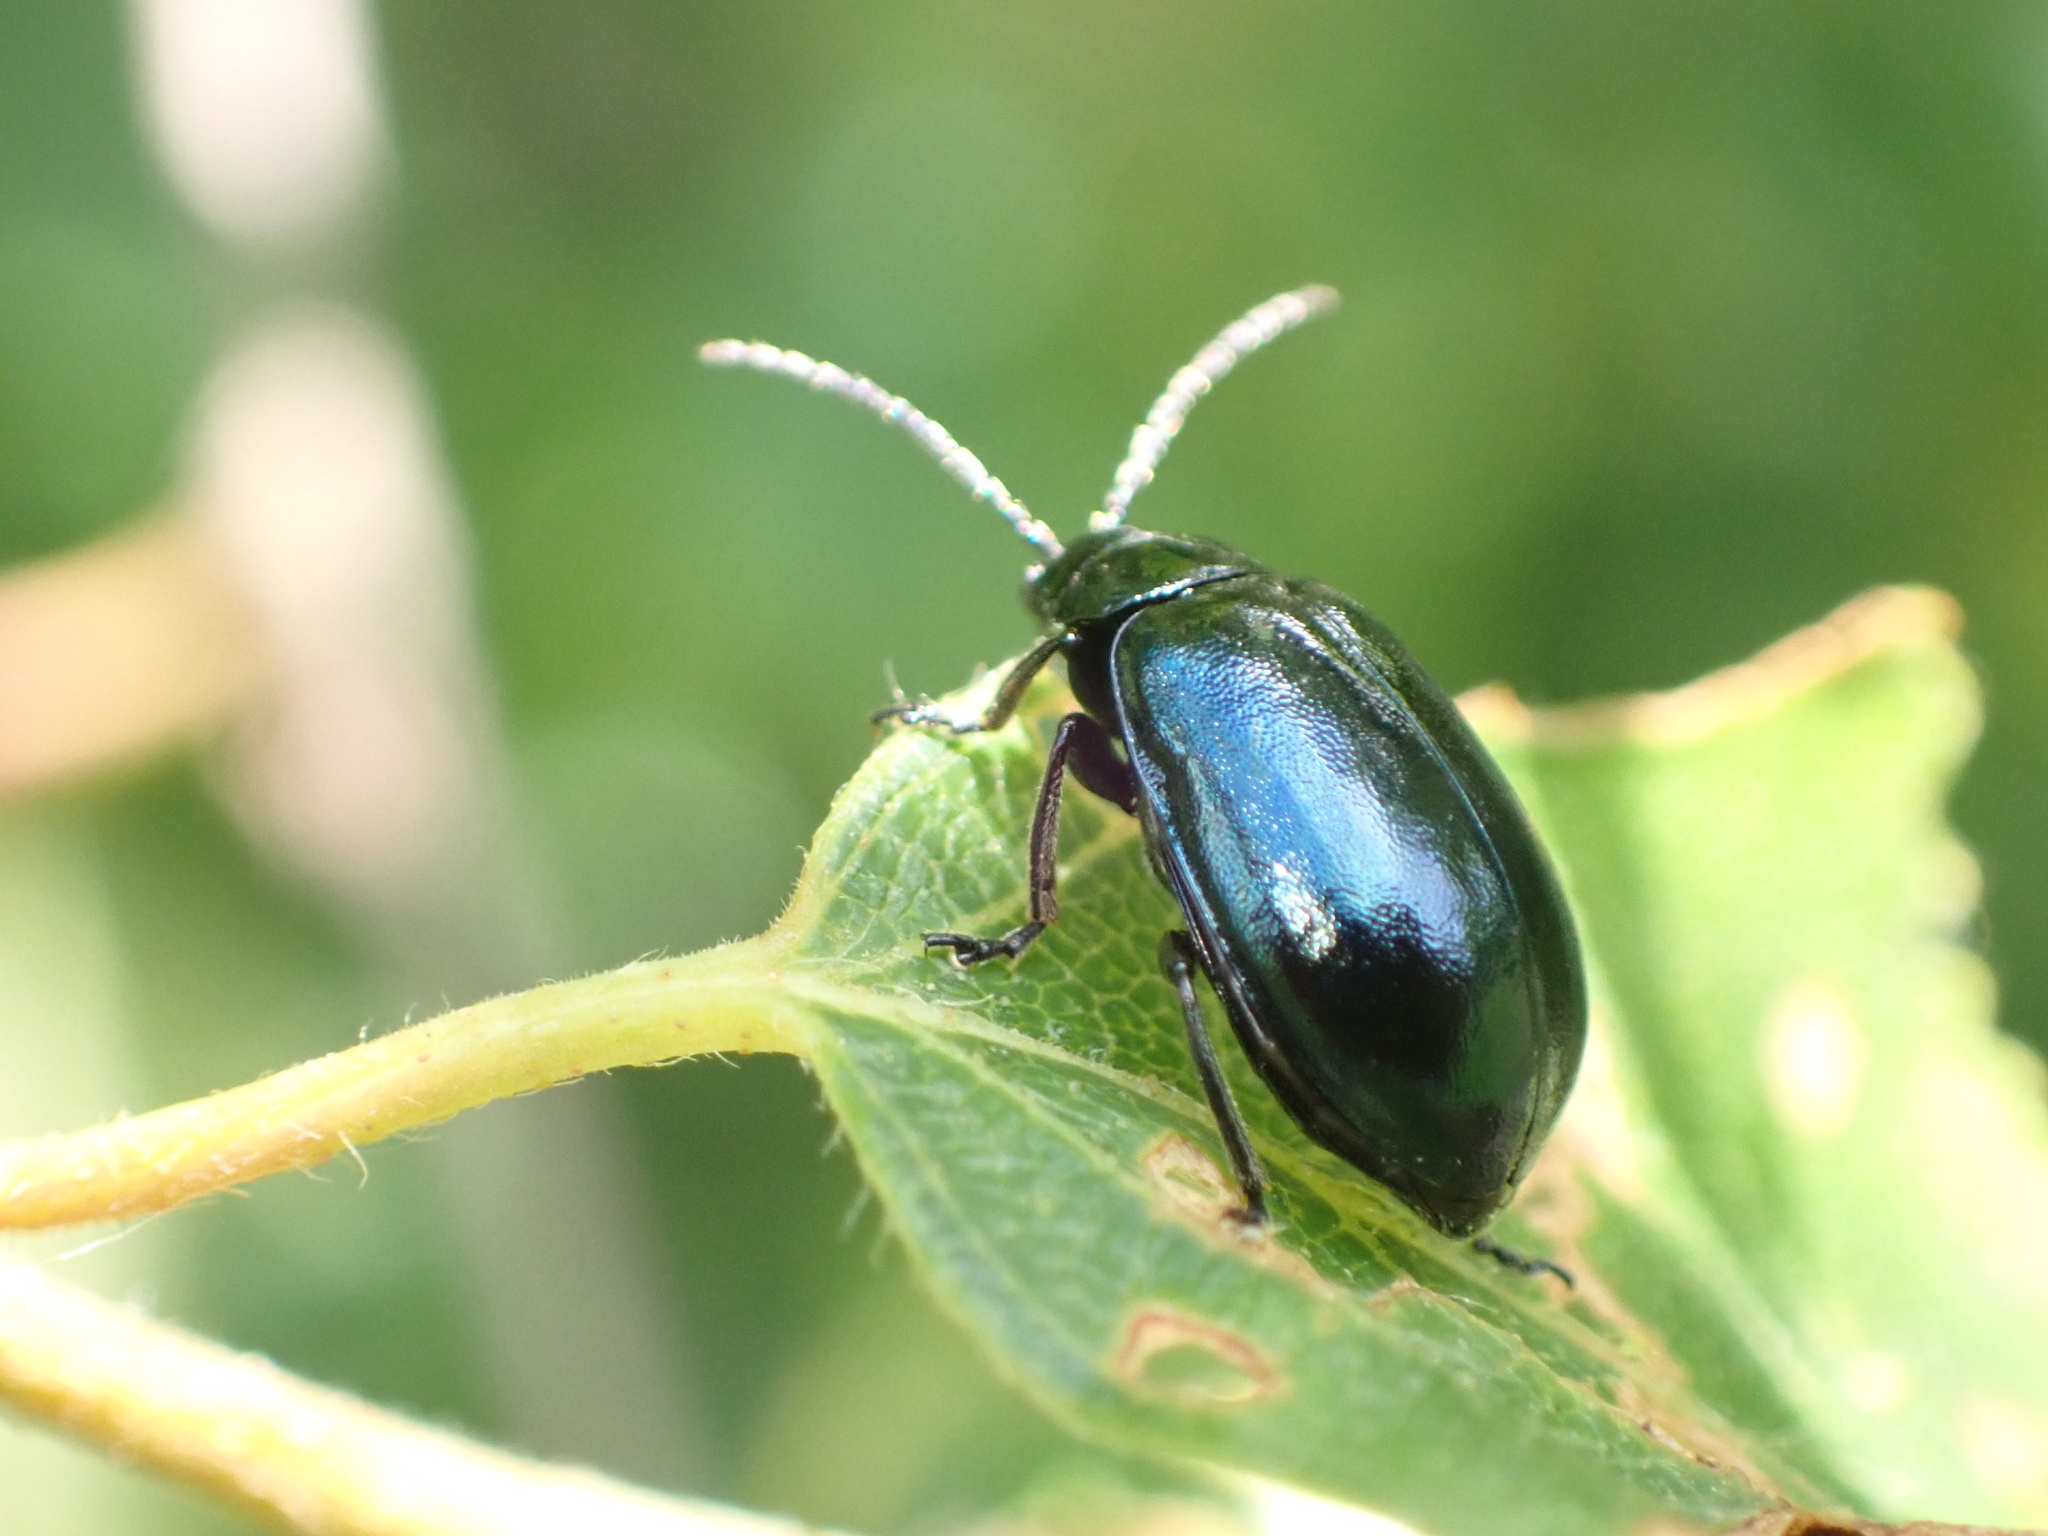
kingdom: Animalia
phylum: Arthropoda
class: Insecta
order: Coleoptera
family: Chrysomelidae
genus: Agelastica
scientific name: Agelastica alni
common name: Alder leaf beetle
